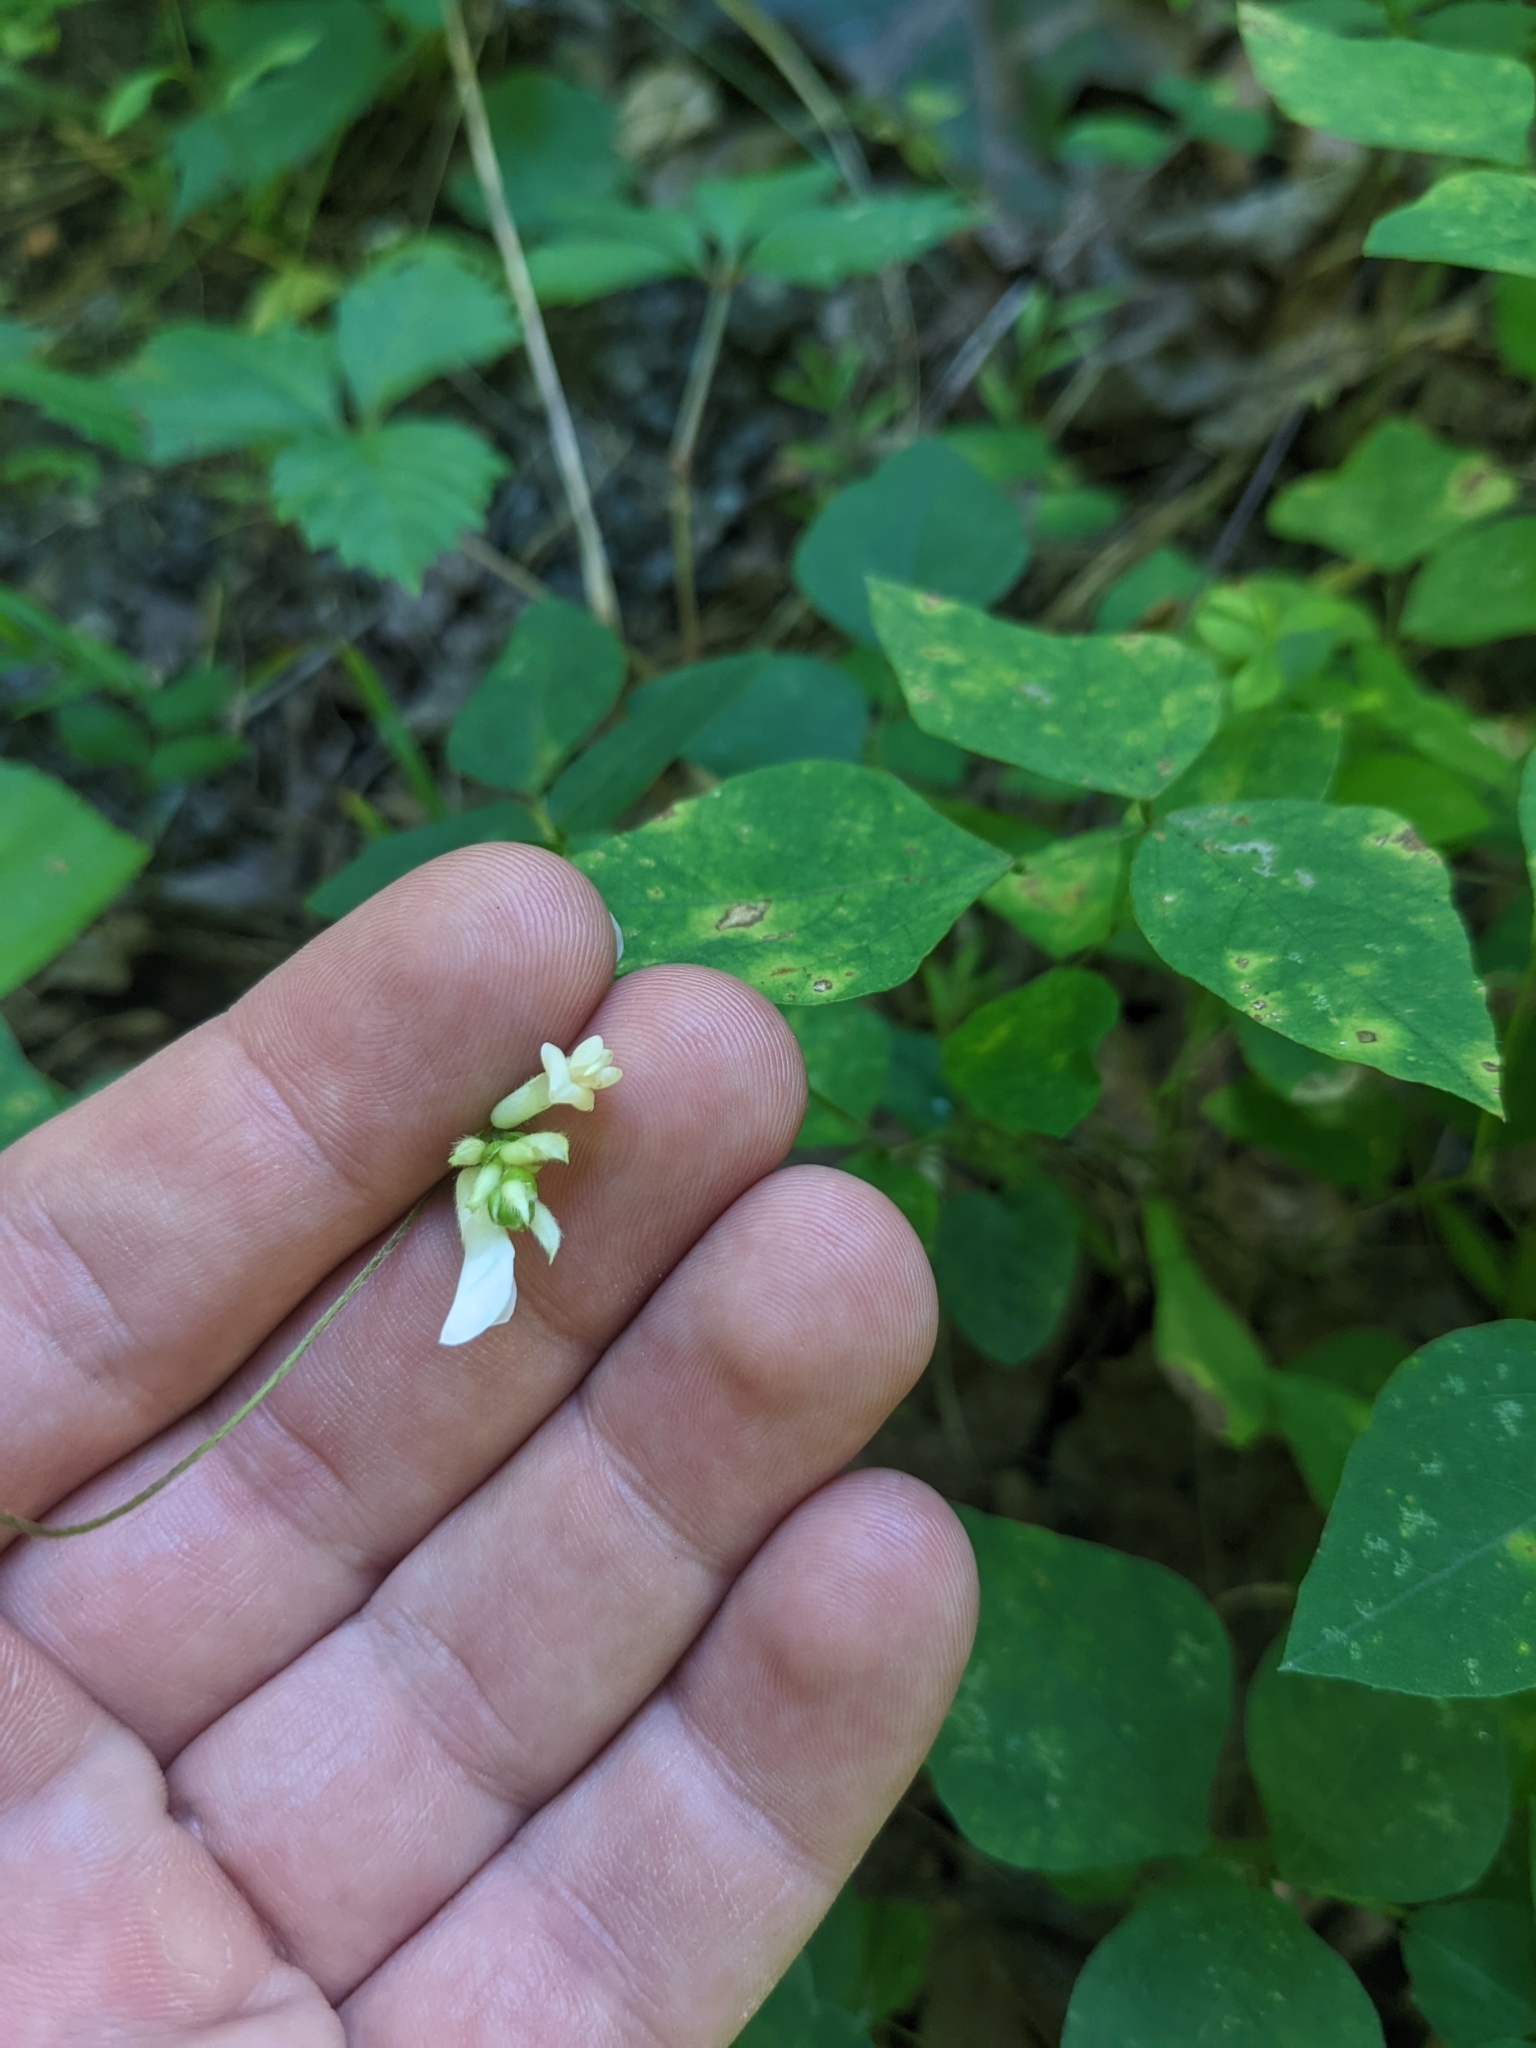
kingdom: Plantae
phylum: Tracheophyta
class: Magnoliopsida
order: Fabales
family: Fabaceae
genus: Amphicarpaea
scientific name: Amphicarpaea bracteata
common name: American hog peanut
